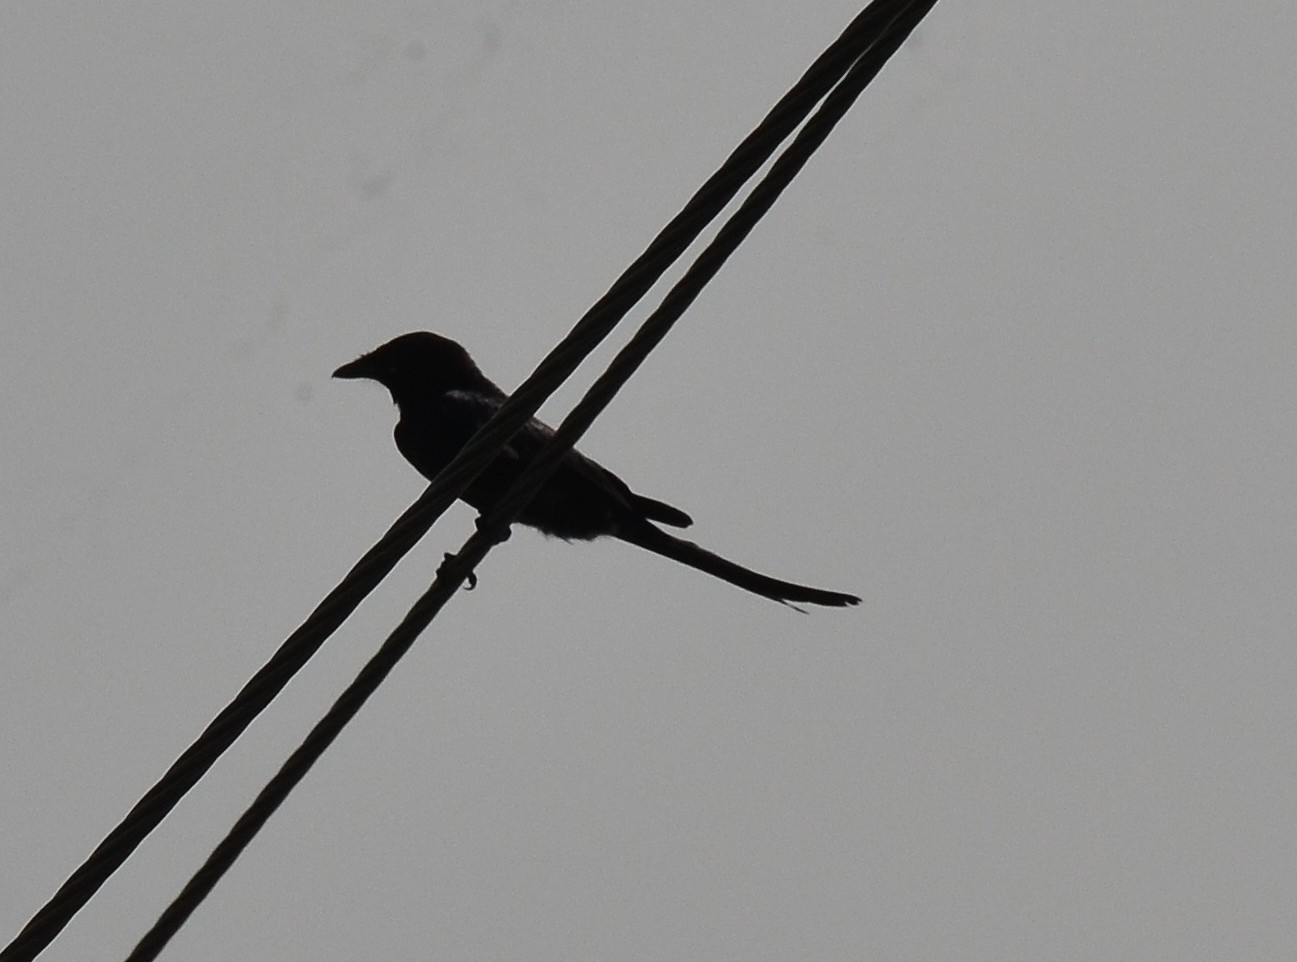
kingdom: Animalia
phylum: Chordata
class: Aves
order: Passeriformes
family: Dicruridae
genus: Dicrurus
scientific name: Dicrurus macrocercus
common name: Black drongo
